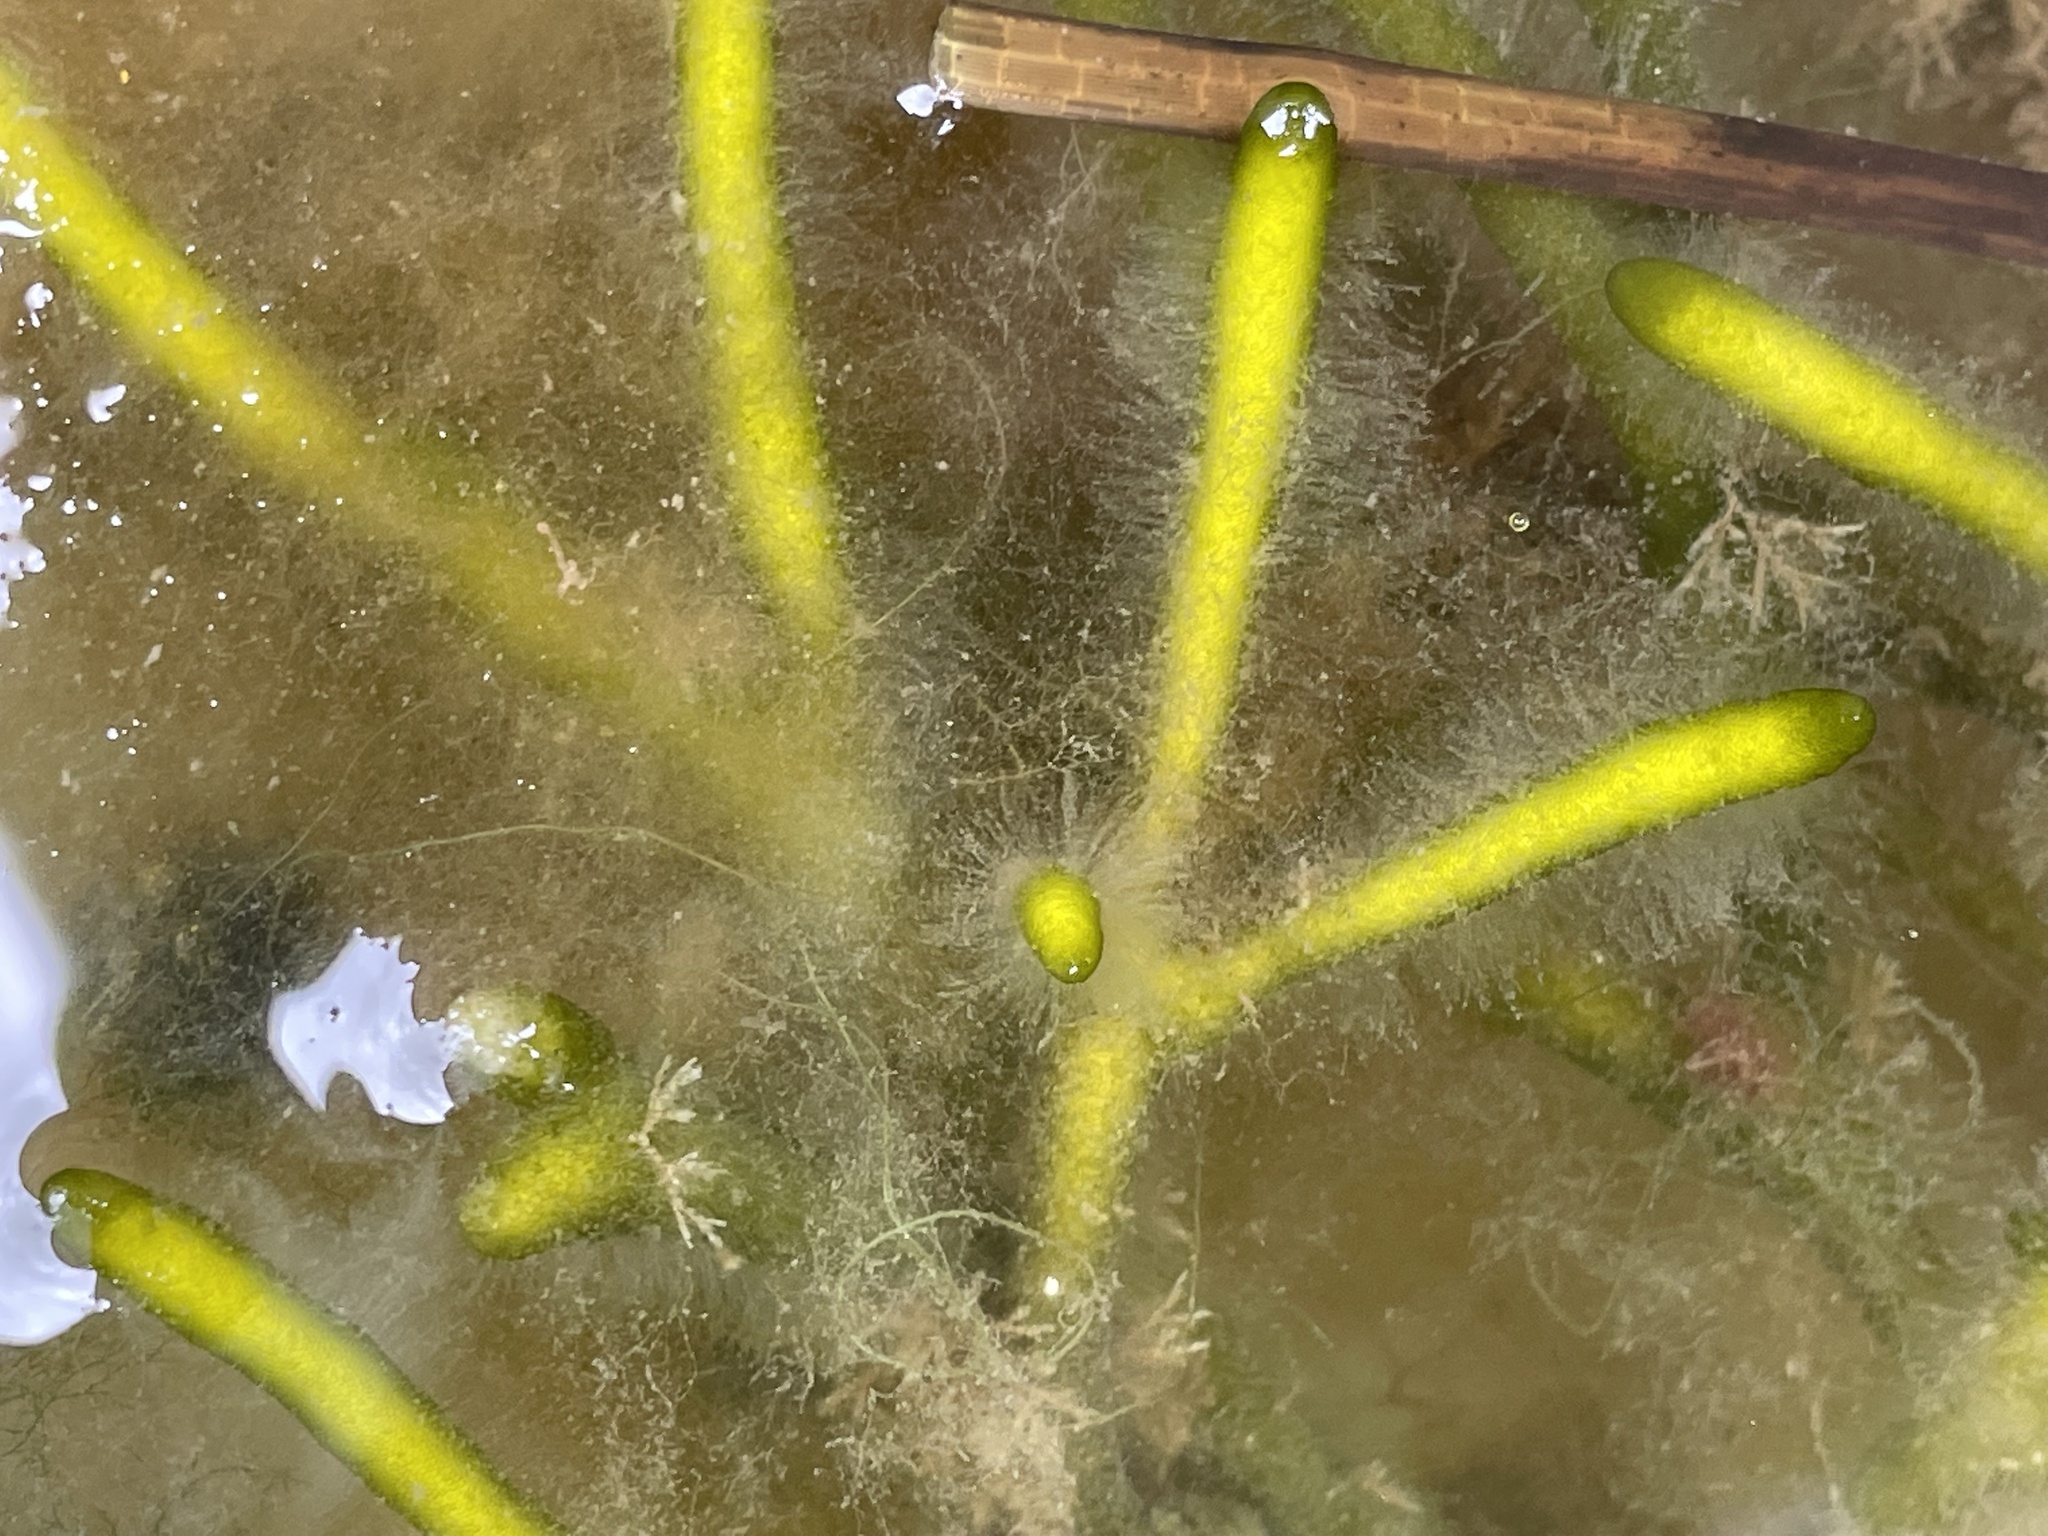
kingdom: Plantae
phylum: Chlorophyta
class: Ulvophyceae
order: Bryopsidales
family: Codiaceae
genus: Codium
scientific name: Codium fragile
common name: Dead man's fingers
